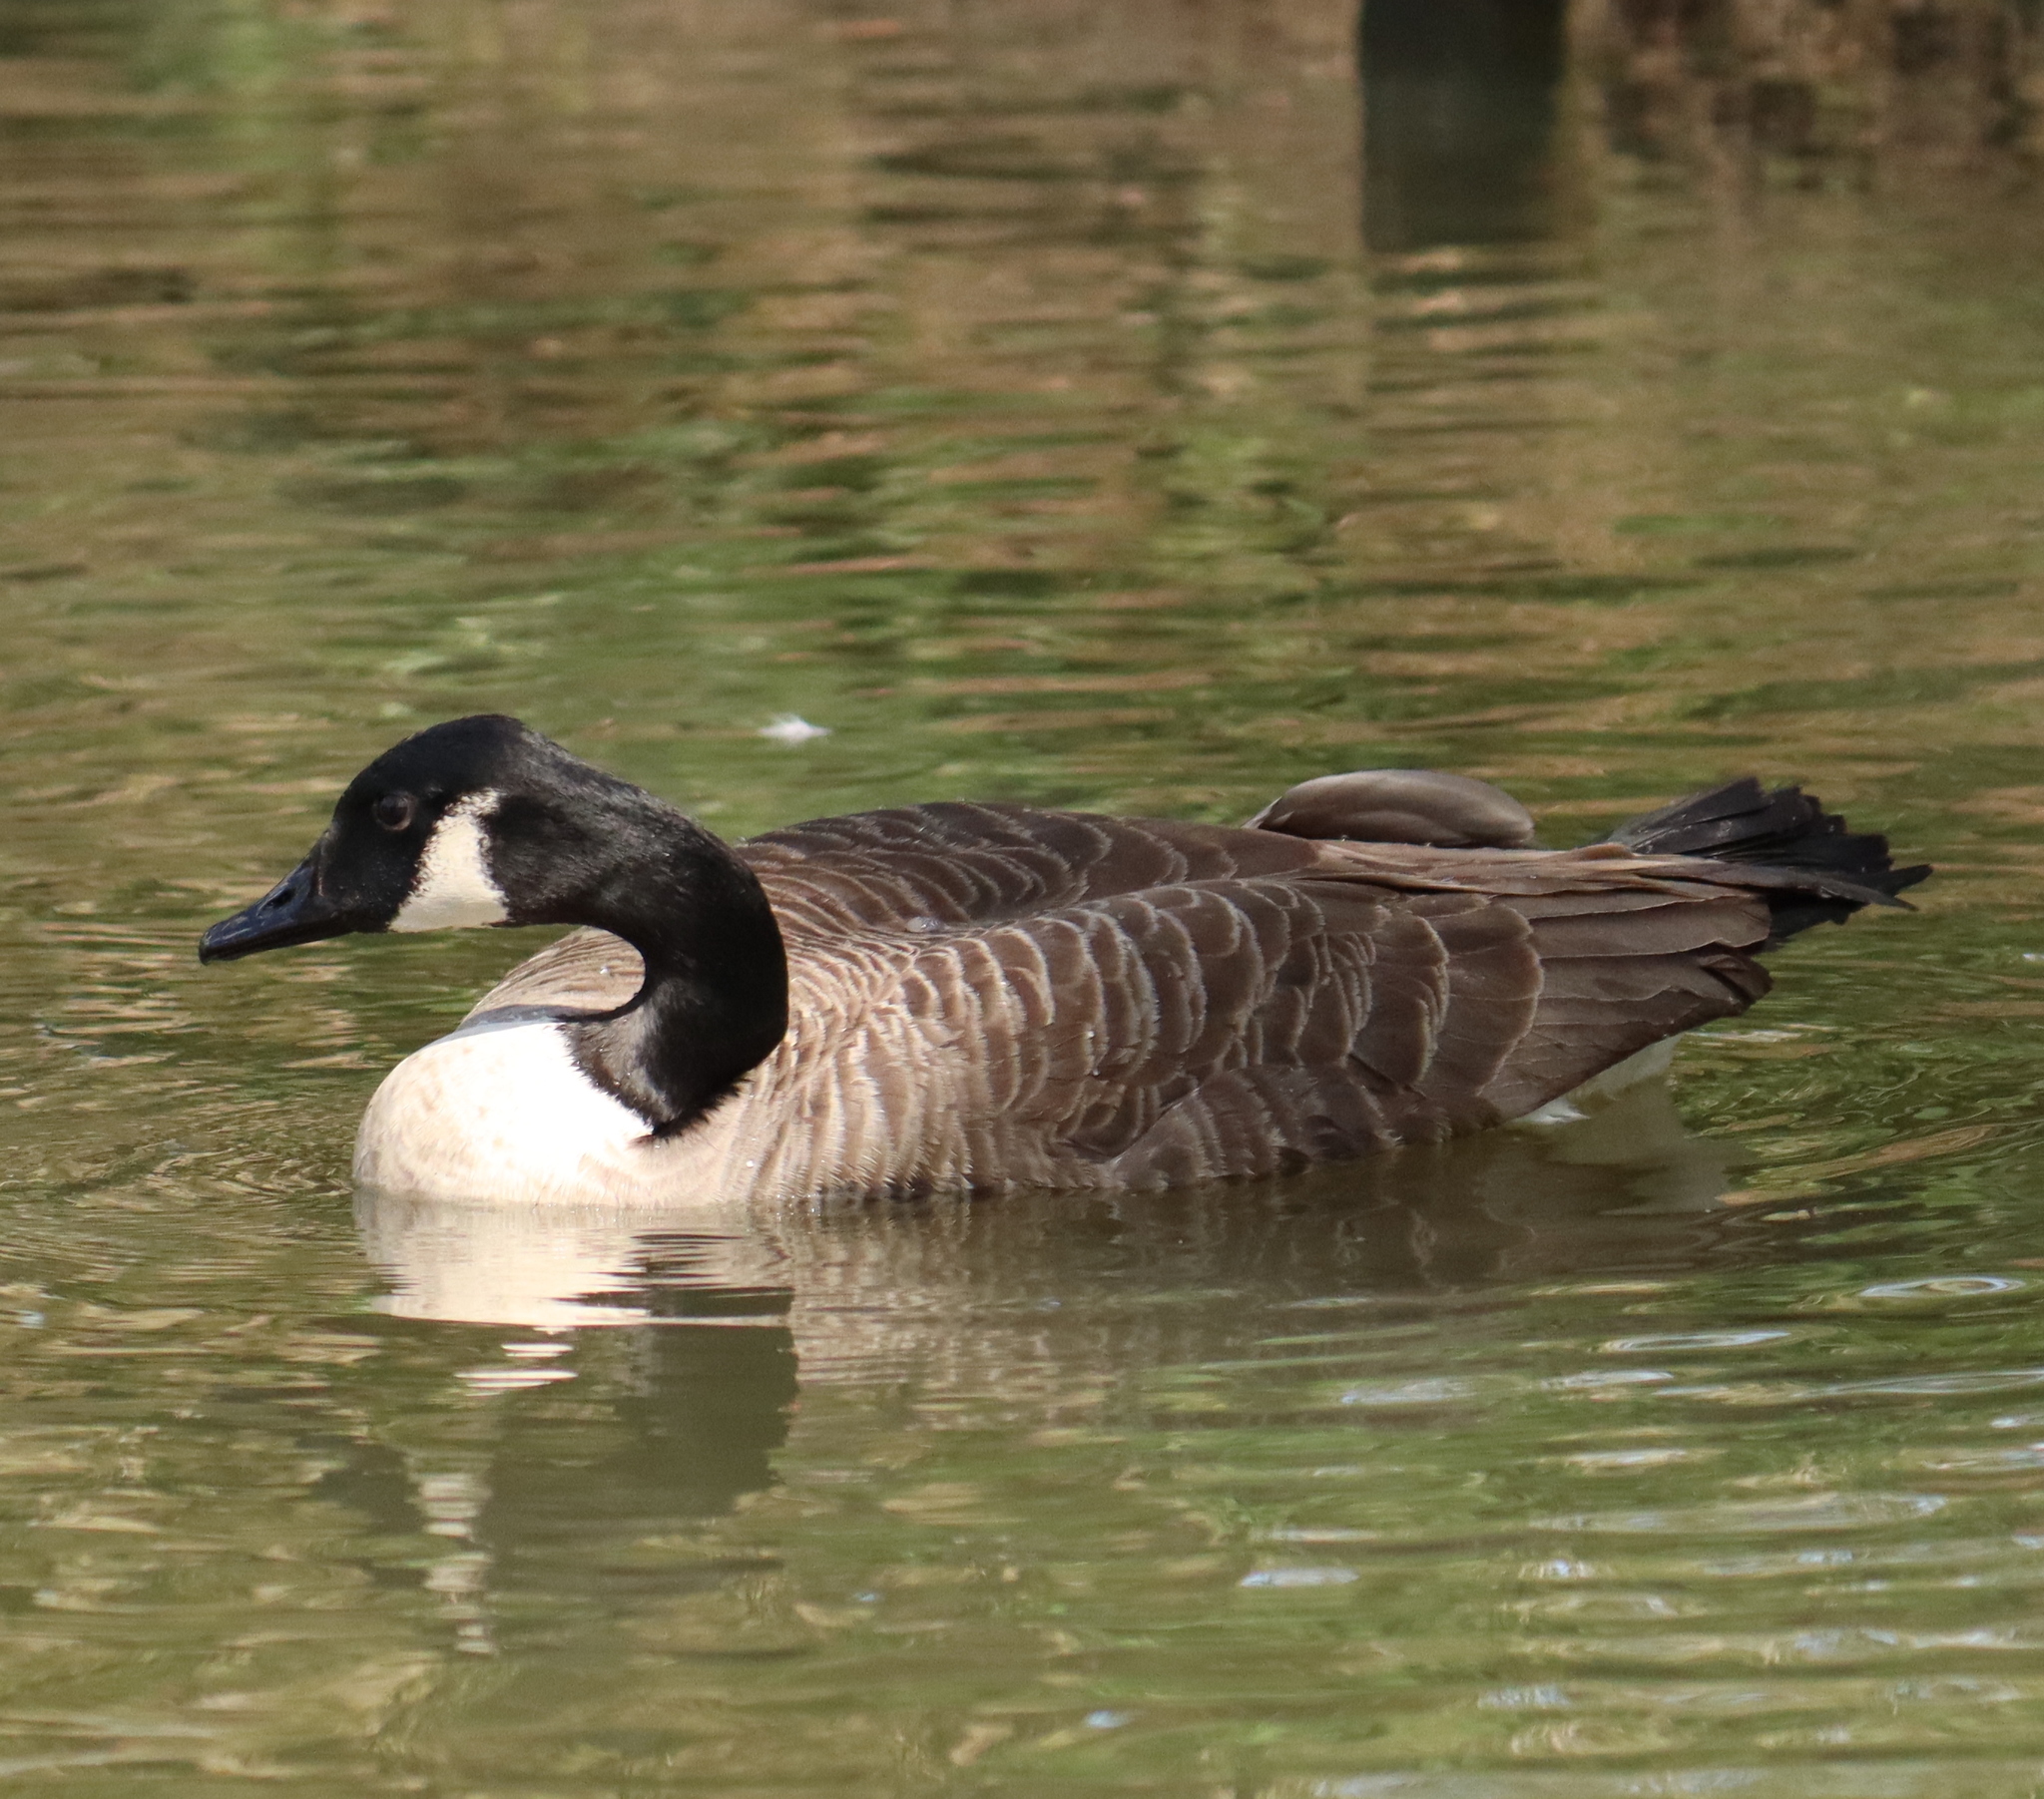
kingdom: Animalia
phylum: Chordata
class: Aves
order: Anseriformes
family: Anatidae
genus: Branta
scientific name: Branta canadensis
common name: Canada goose
